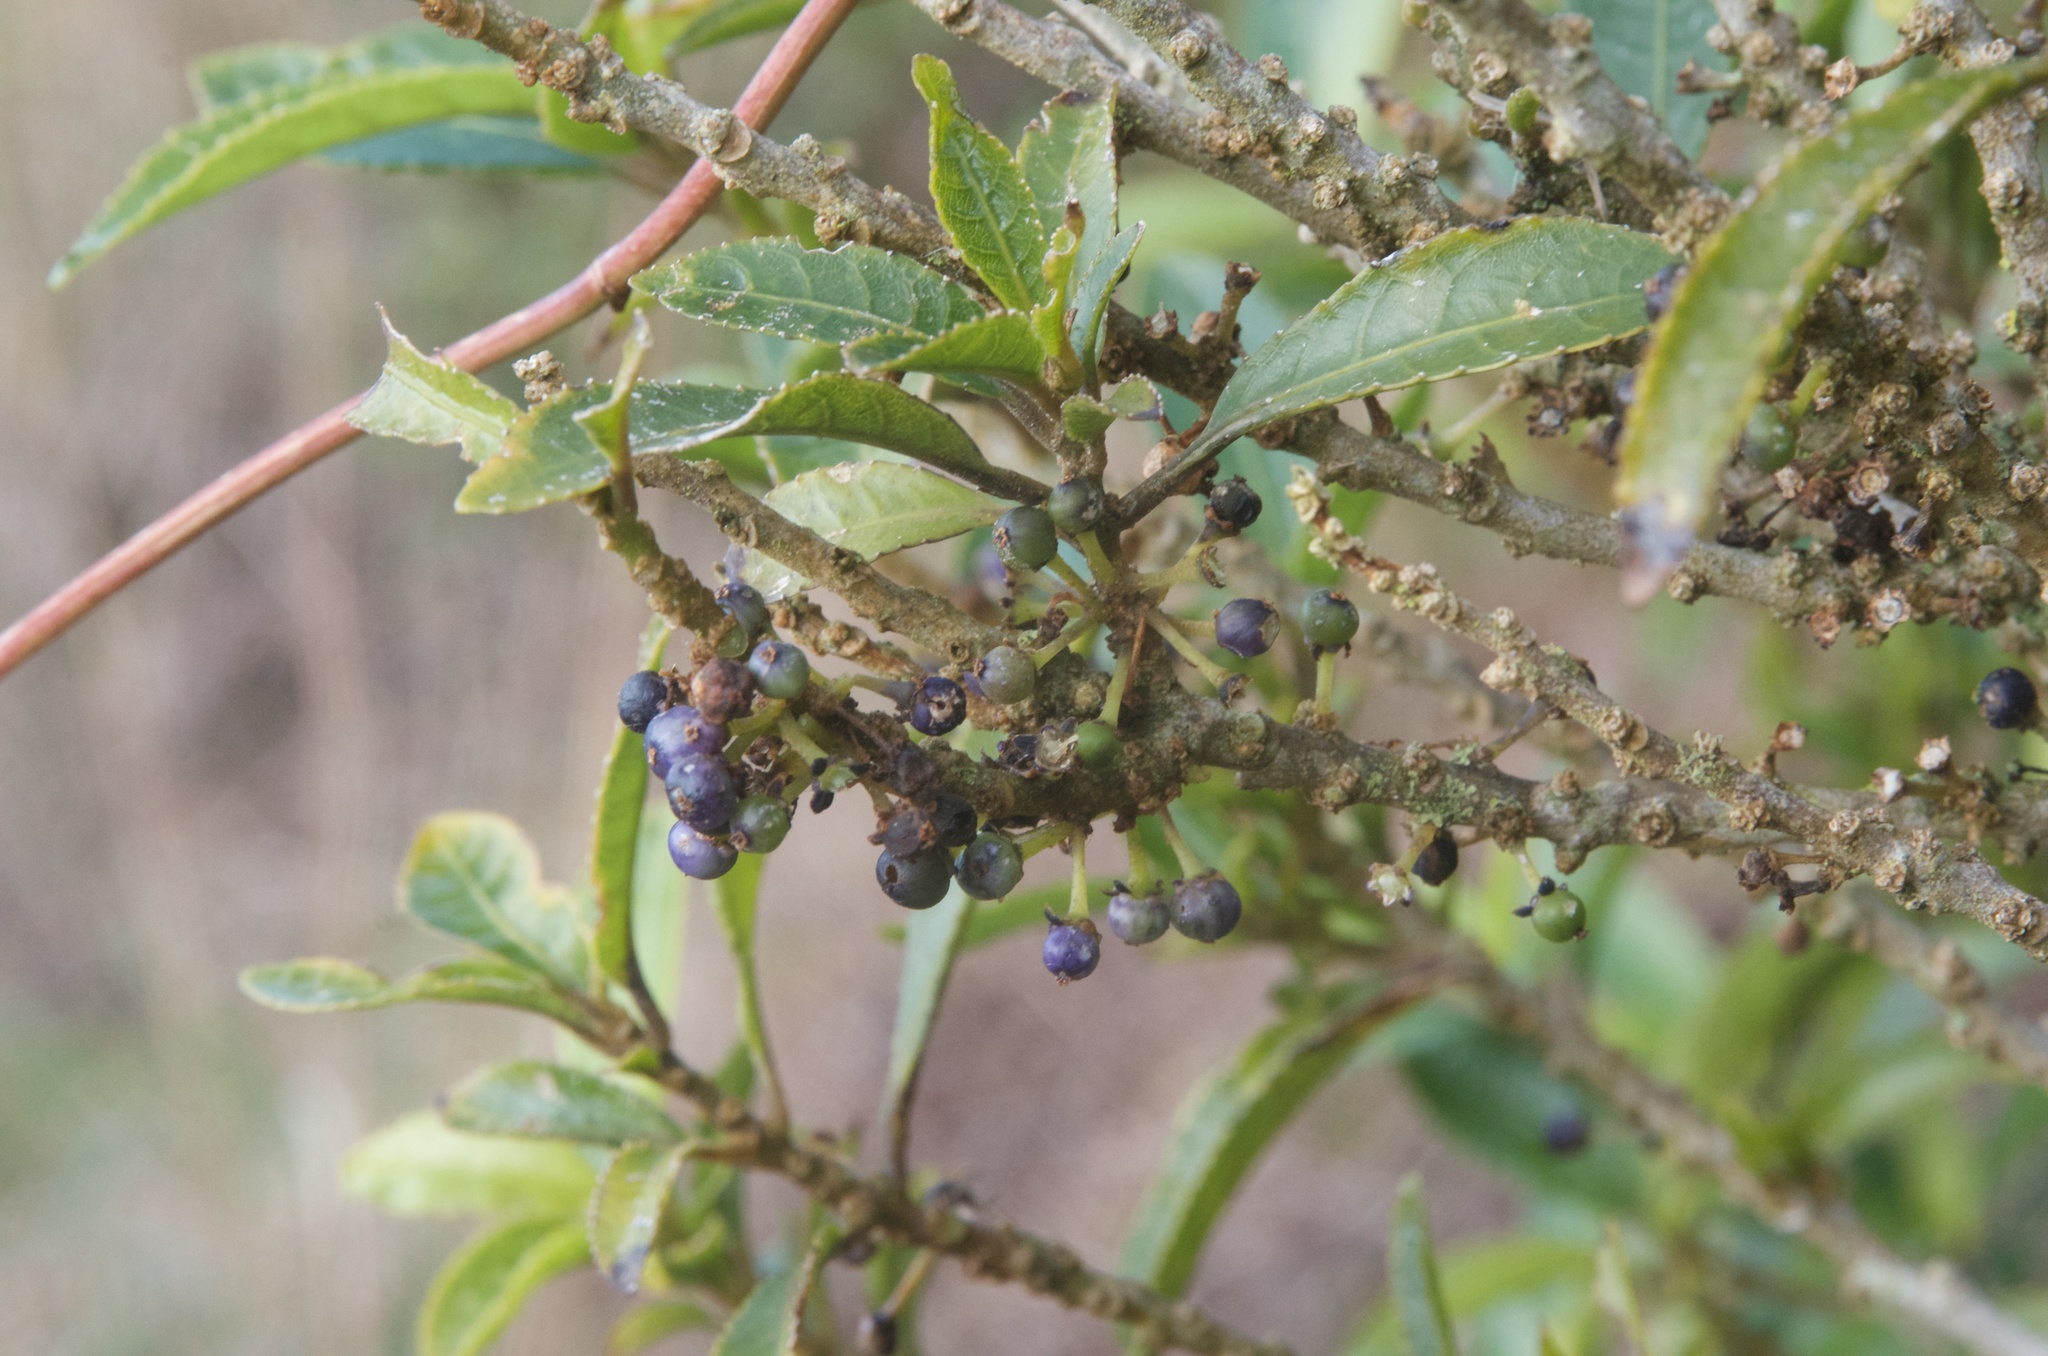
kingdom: Plantae
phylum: Tracheophyta
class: Magnoliopsida
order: Malpighiales
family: Violaceae
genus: Melicytus
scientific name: Melicytus ramiflorus
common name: Mahoe
